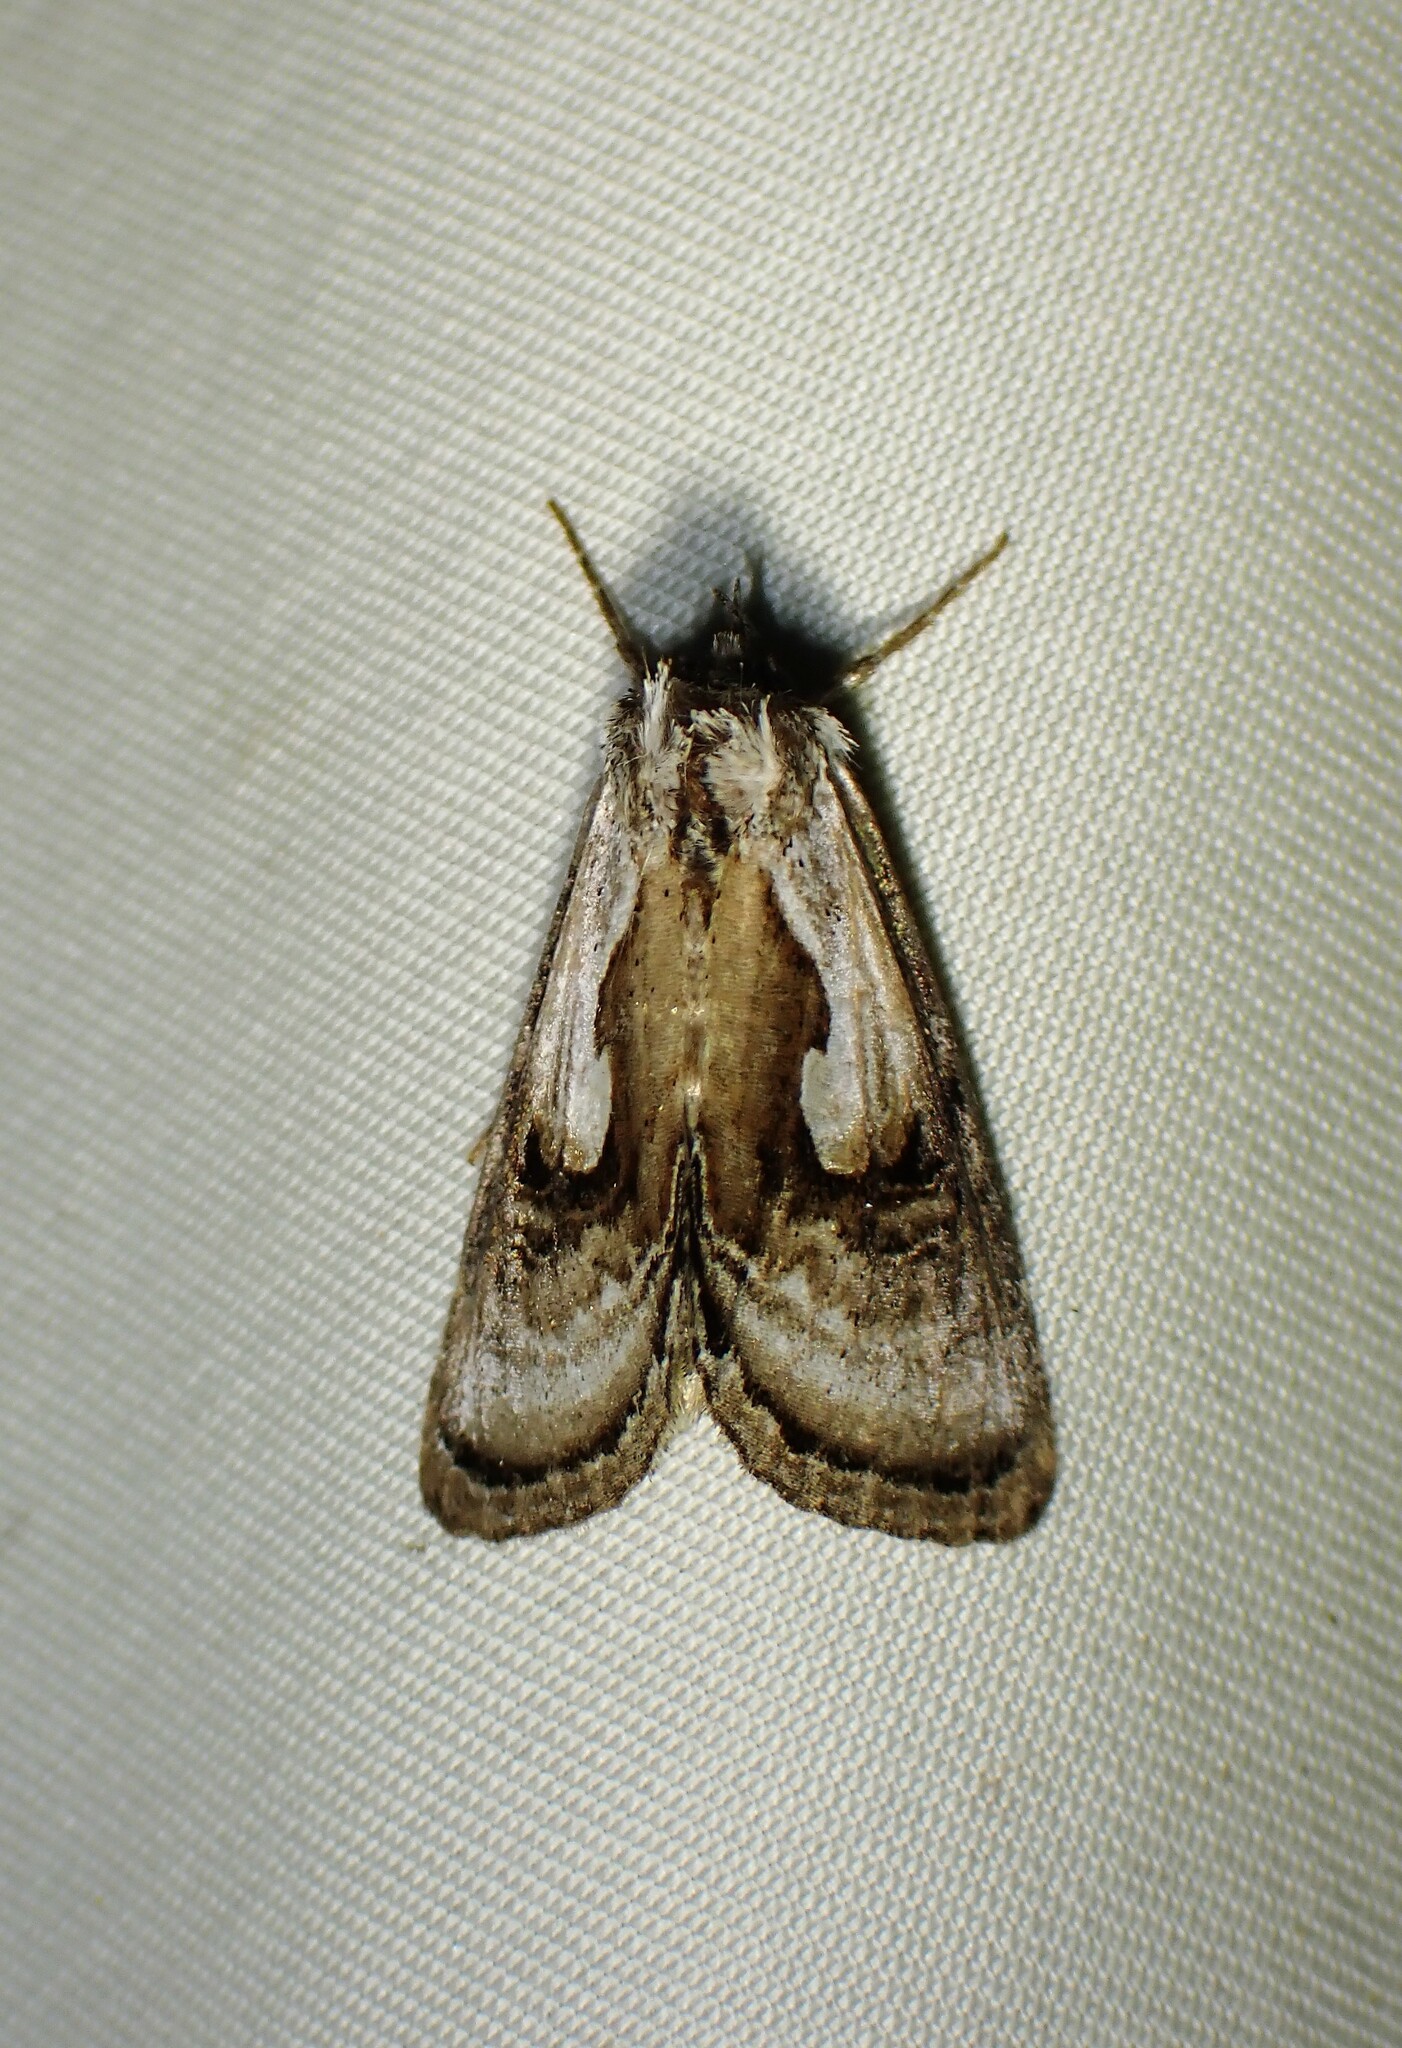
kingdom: Animalia
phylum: Arthropoda
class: Insecta
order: Lepidoptera
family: Noctuidae
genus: Chrysanympha
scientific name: Chrysanympha formosa
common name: Formosa looper moth
